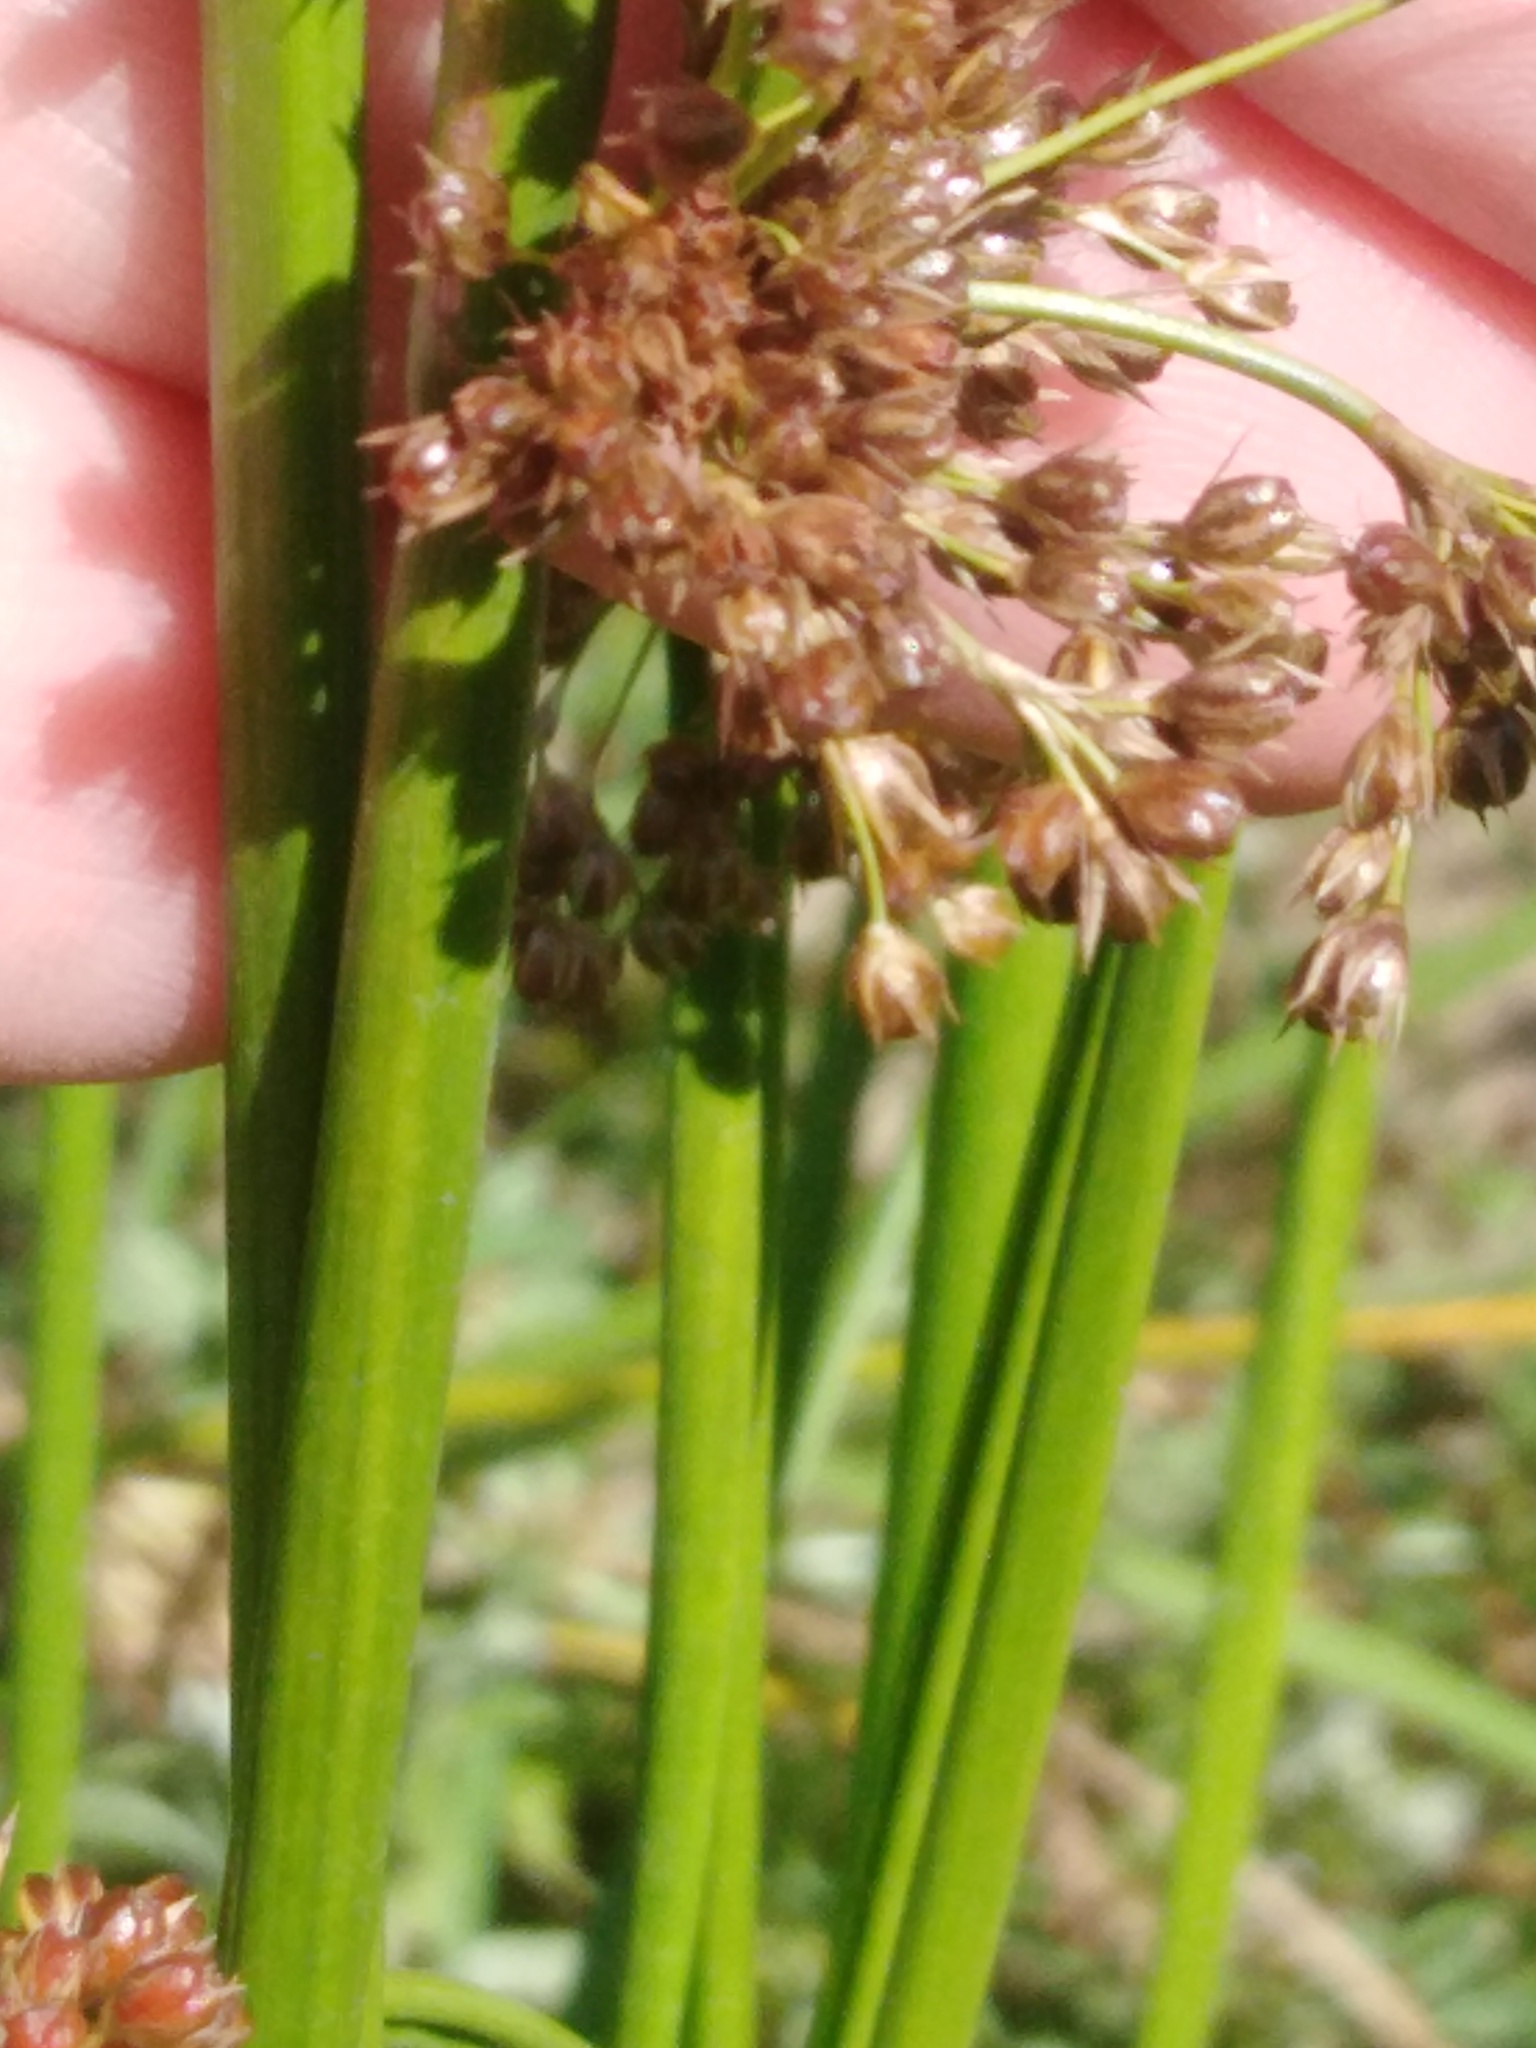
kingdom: Plantae
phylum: Tracheophyta
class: Liliopsida
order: Poales
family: Juncaceae
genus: Juncus
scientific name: Juncus effusus
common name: Soft rush
